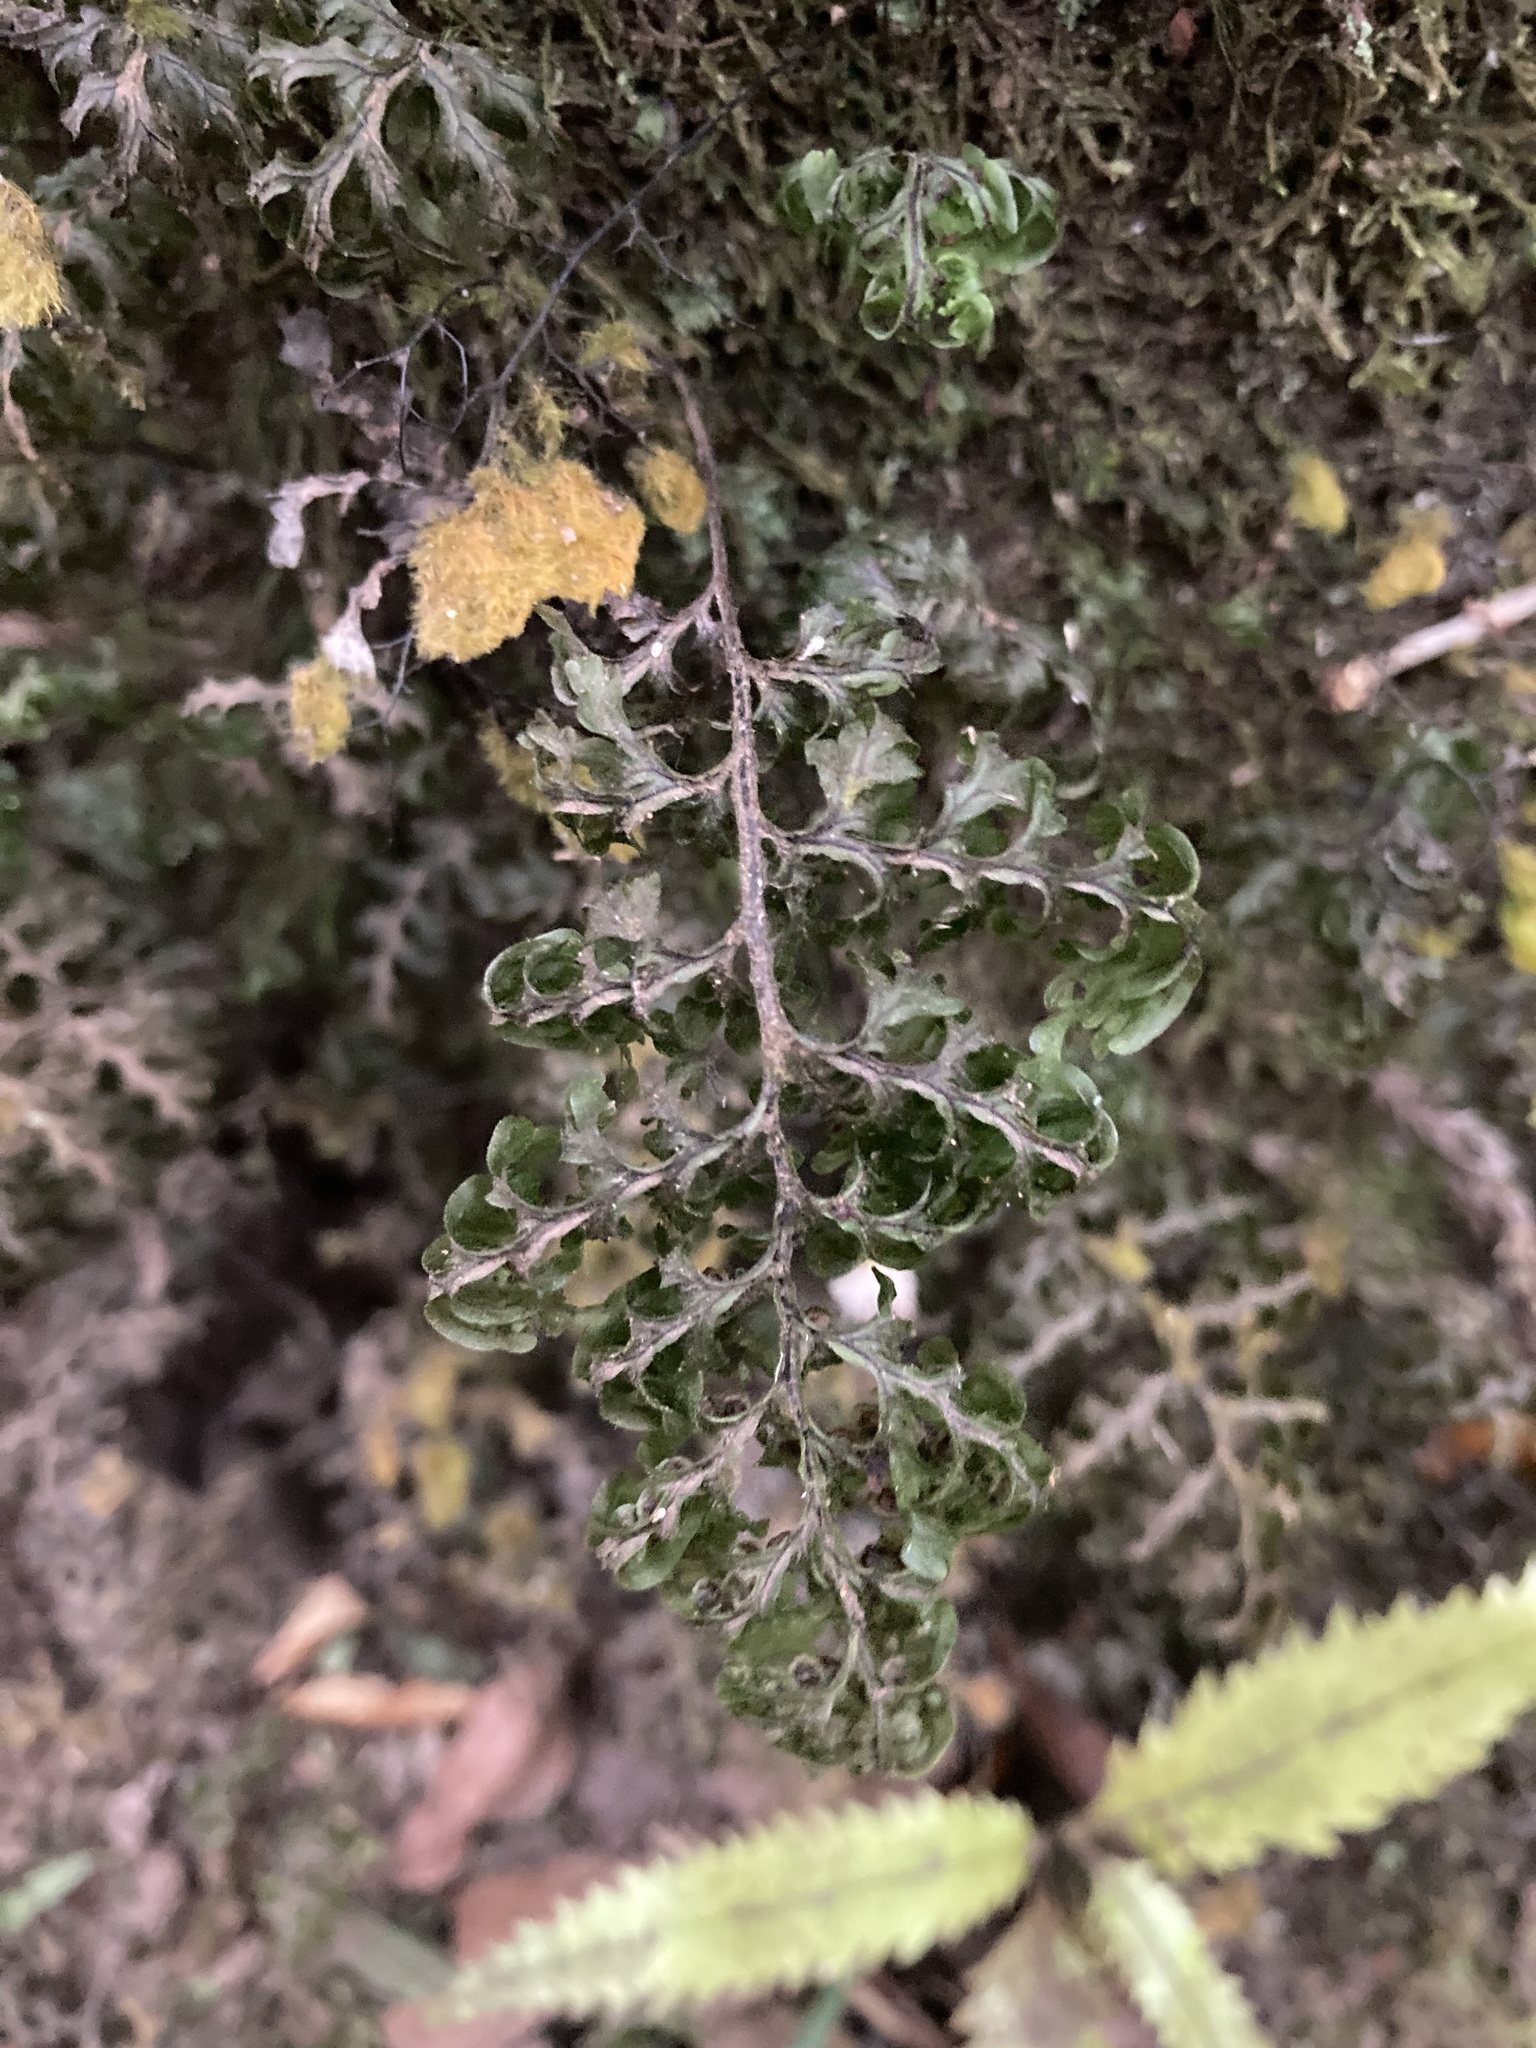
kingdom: Plantae
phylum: Tracheophyta
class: Polypodiopsida
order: Hymenophyllales
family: Hymenophyllaceae
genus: Hymenophyllum
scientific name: Hymenophyllum sanguinolentum
